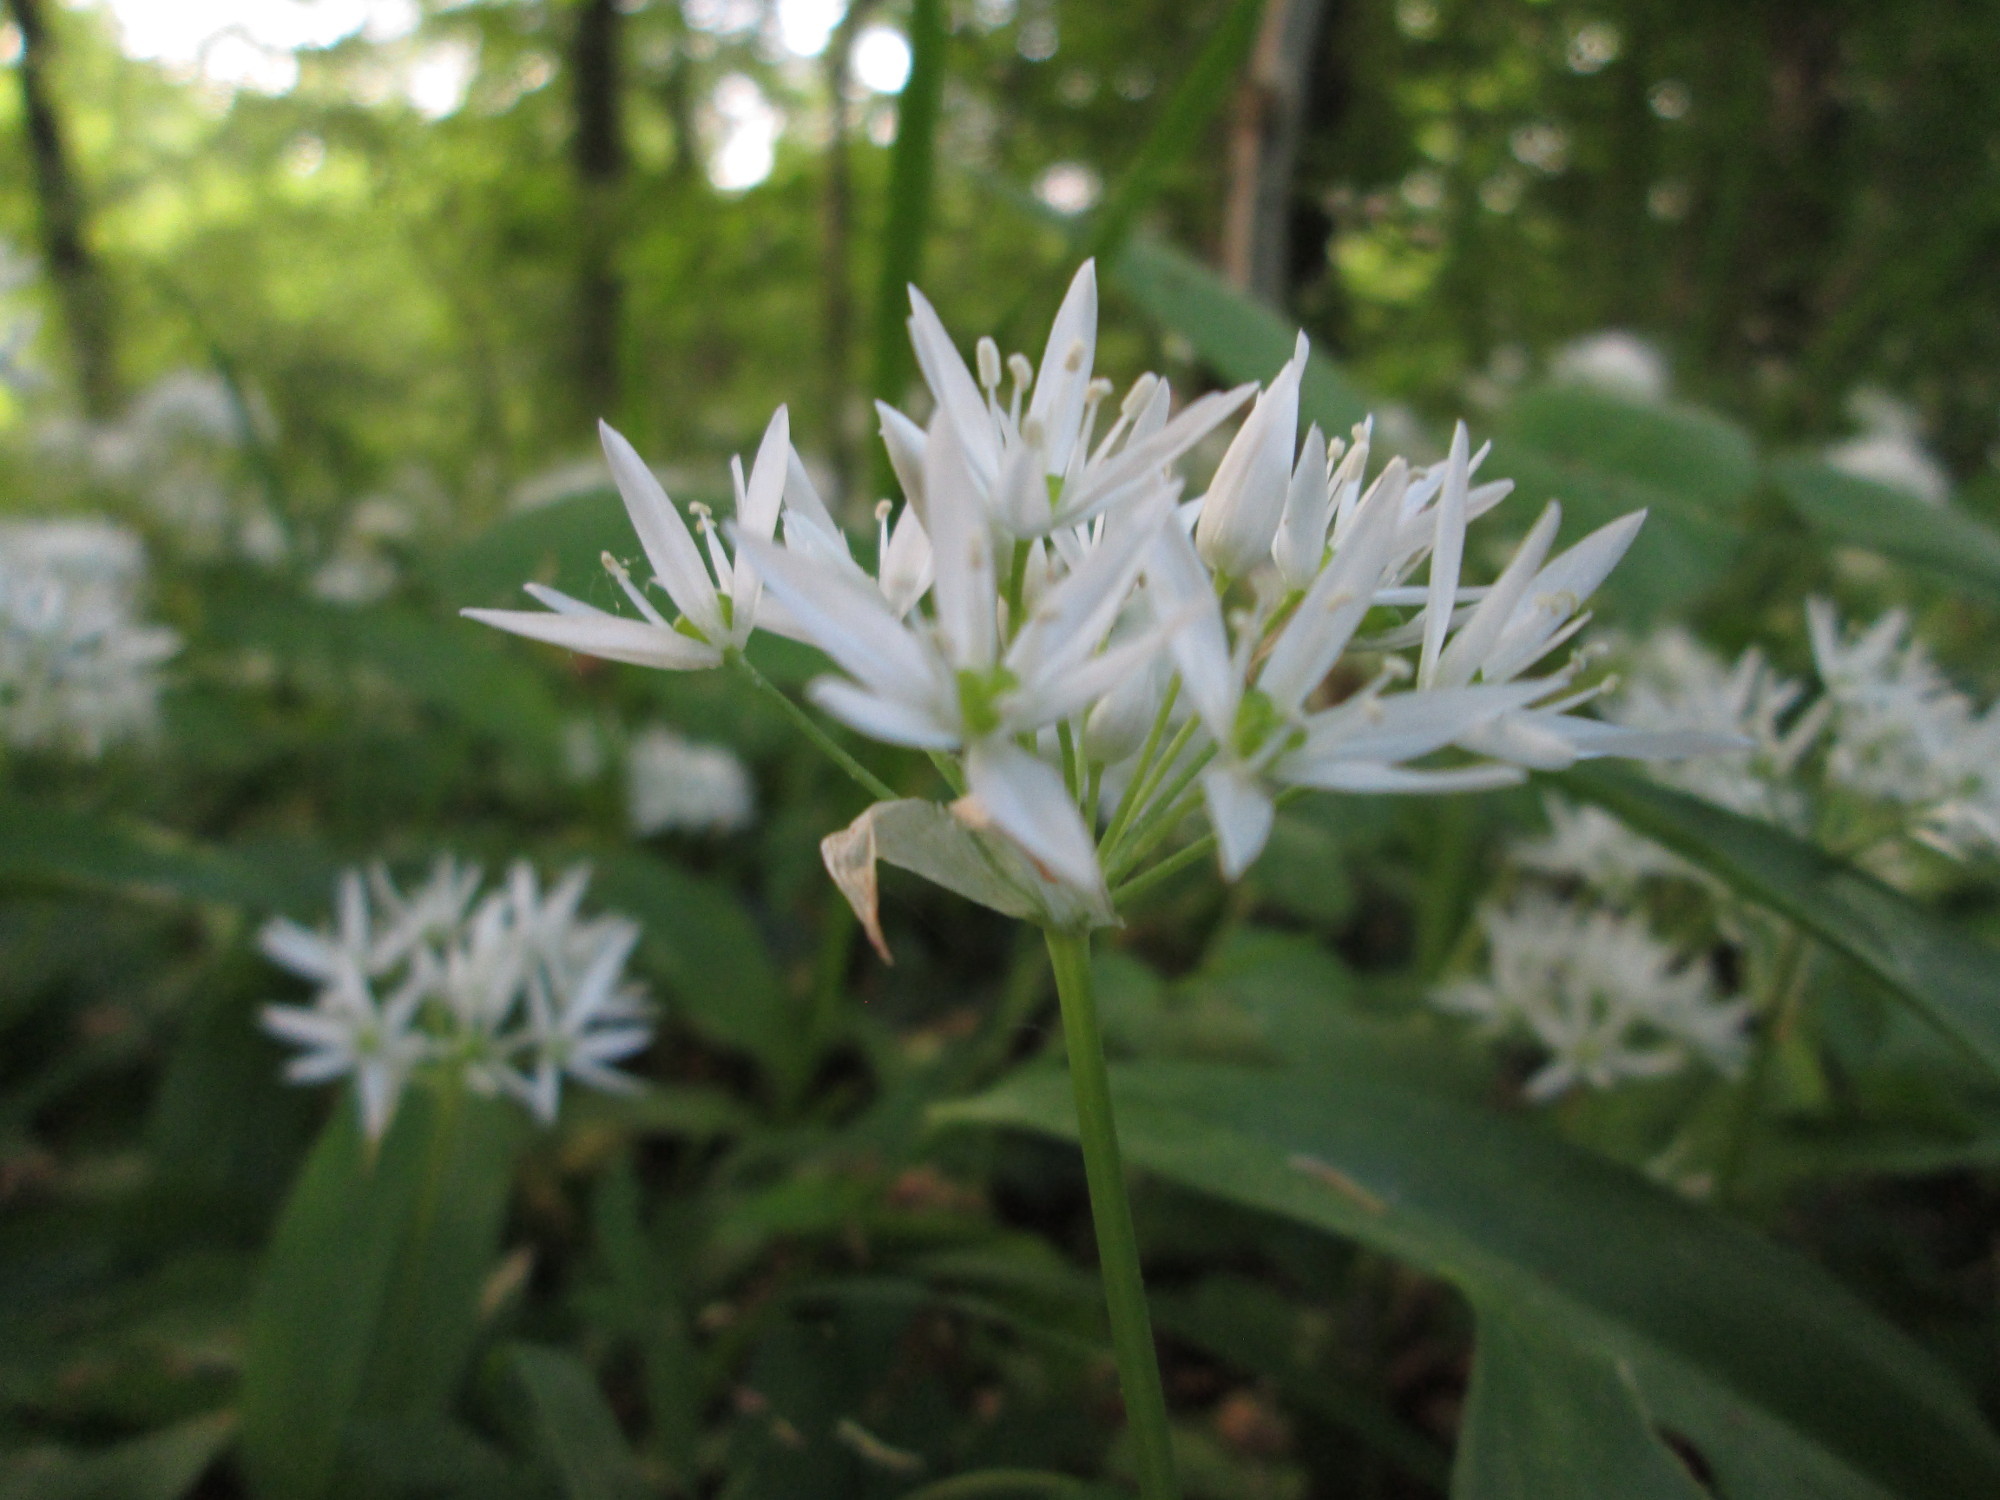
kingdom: Plantae
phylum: Tracheophyta
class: Liliopsida
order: Asparagales
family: Amaryllidaceae
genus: Allium
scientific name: Allium ursinum
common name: Ramsons
